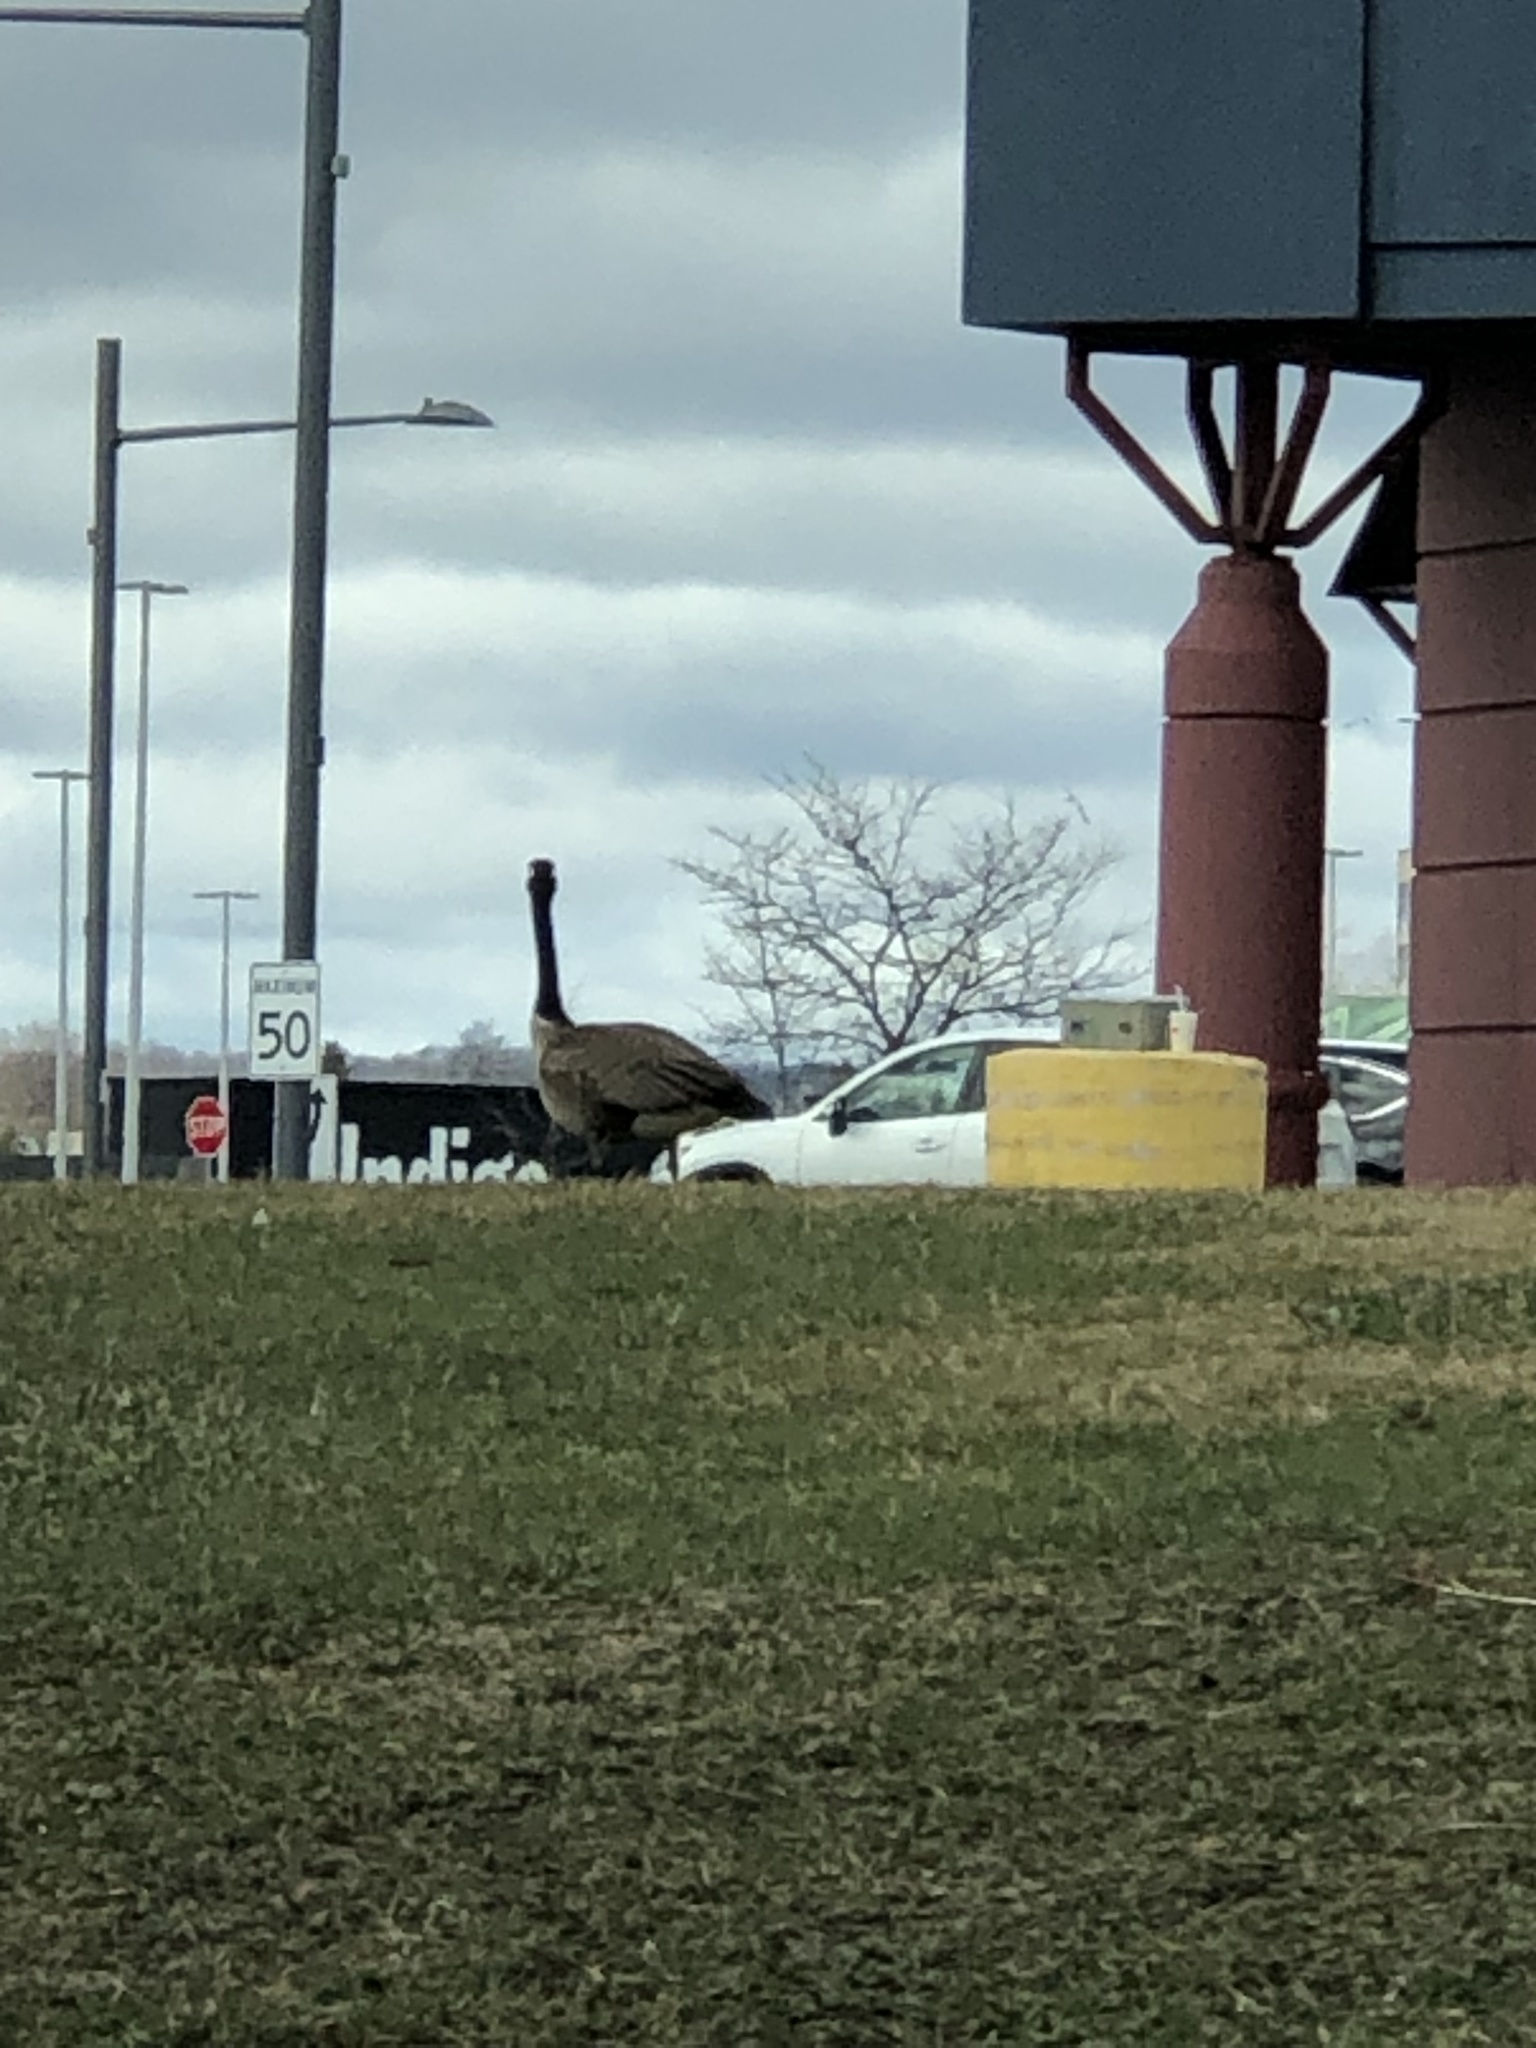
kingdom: Animalia
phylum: Chordata
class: Aves
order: Anseriformes
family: Anatidae
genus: Branta
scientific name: Branta canadensis
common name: Canada goose
